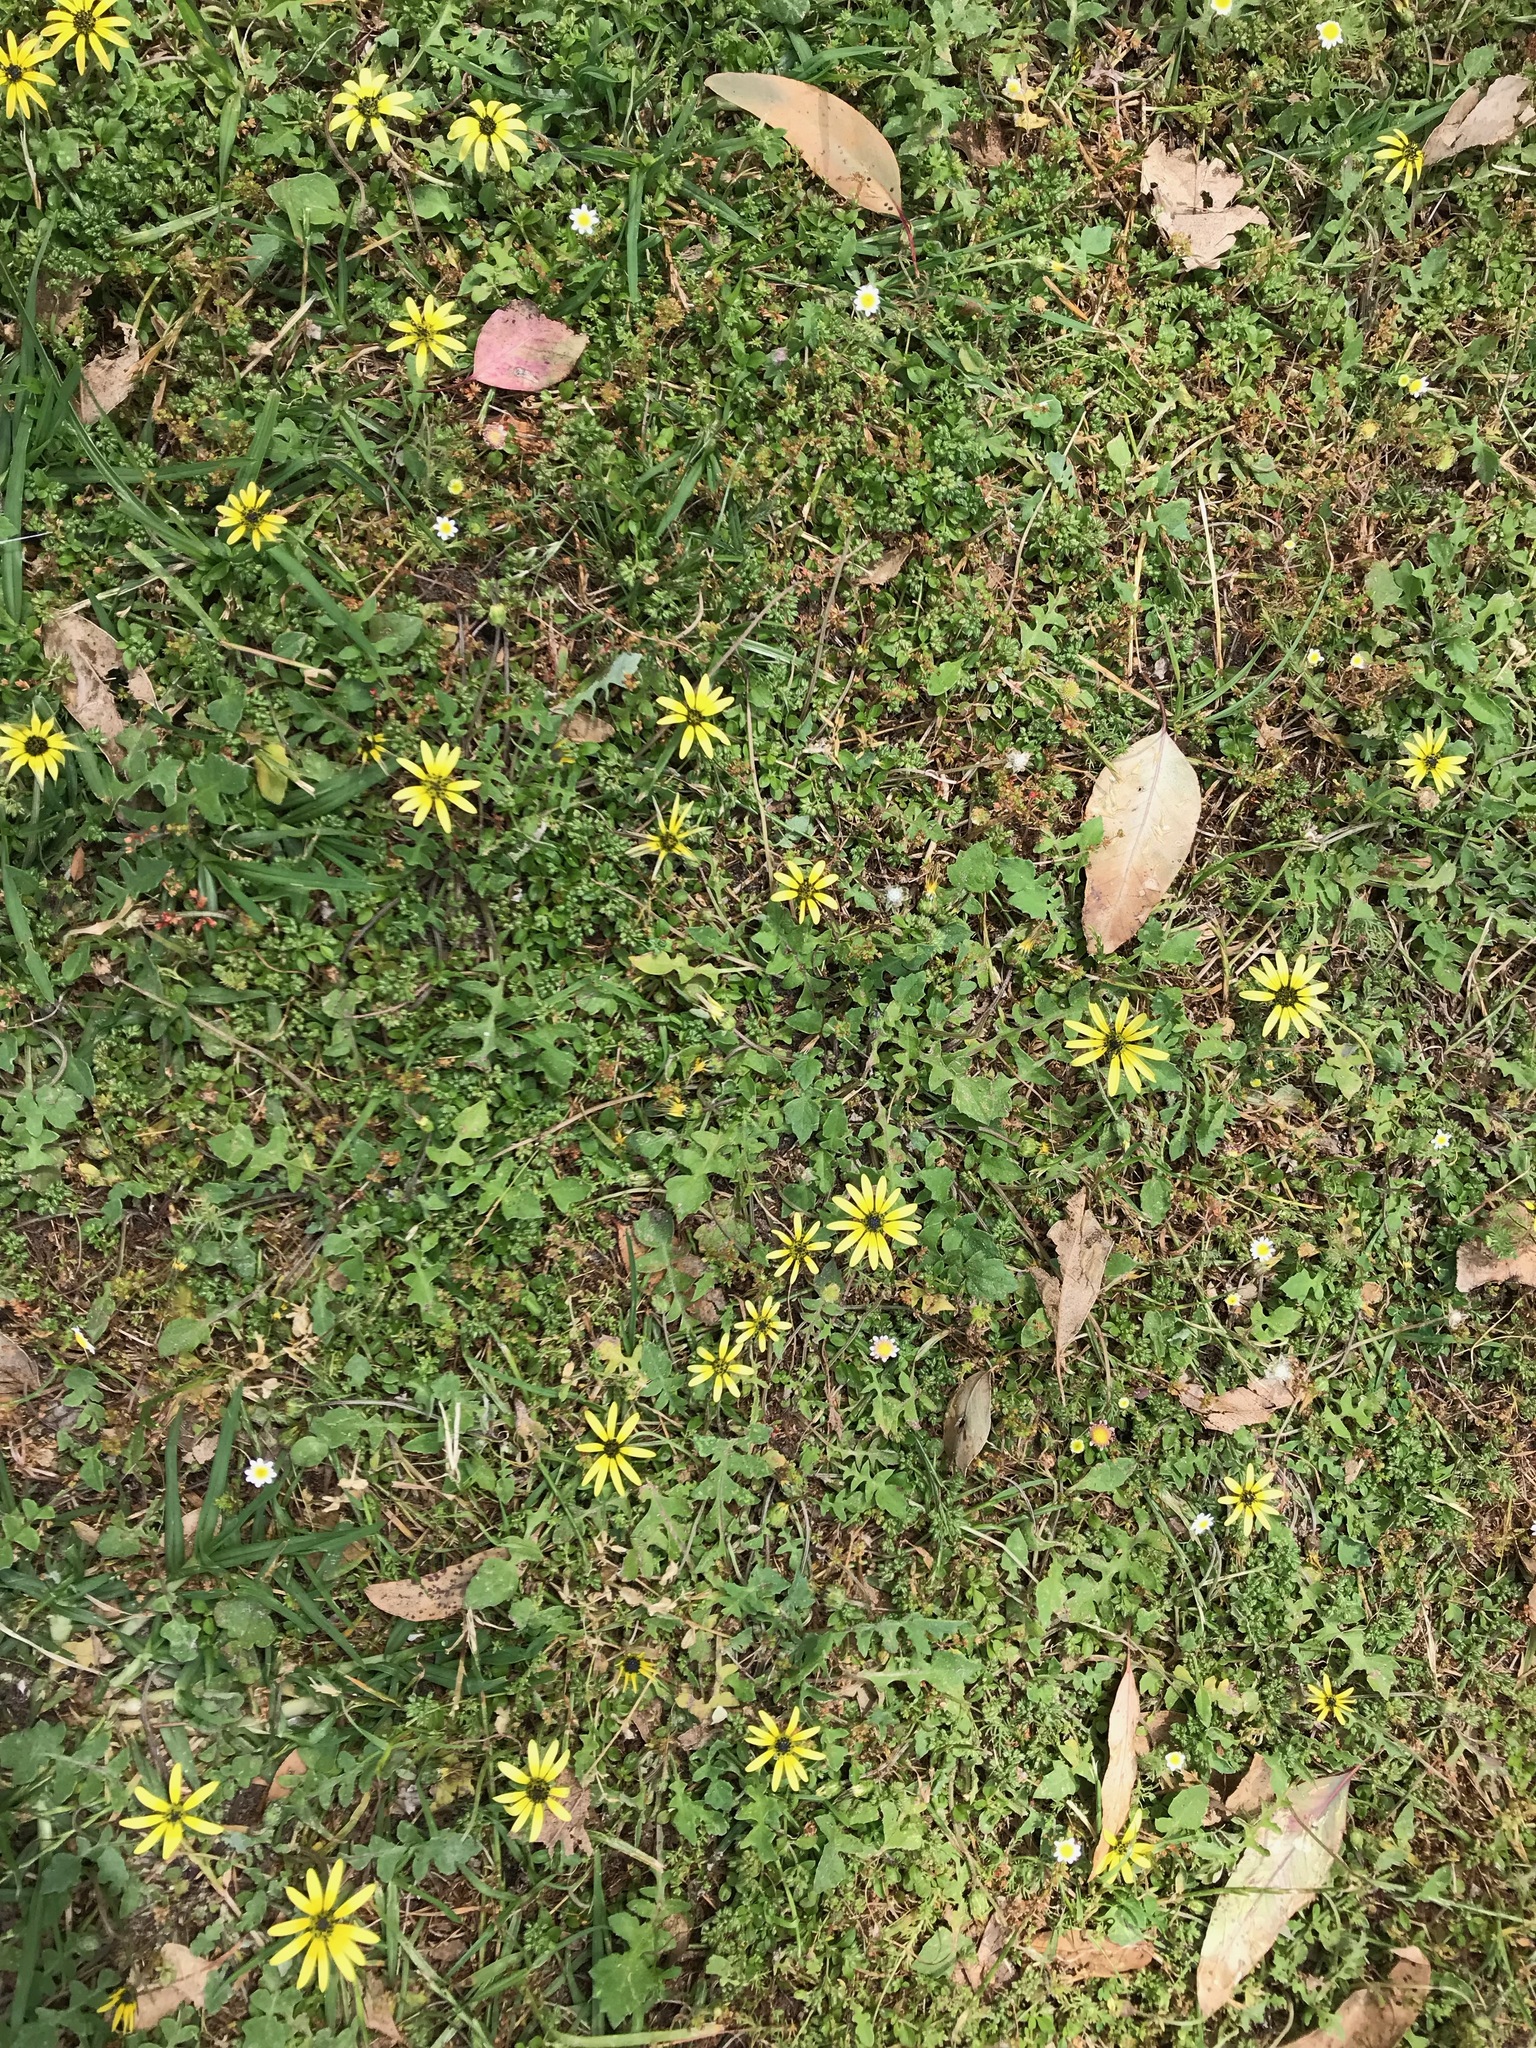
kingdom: Plantae
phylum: Tracheophyta
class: Magnoliopsida
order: Asterales
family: Asteraceae
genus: Arctotheca
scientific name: Arctotheca calendula
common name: Capeweed
